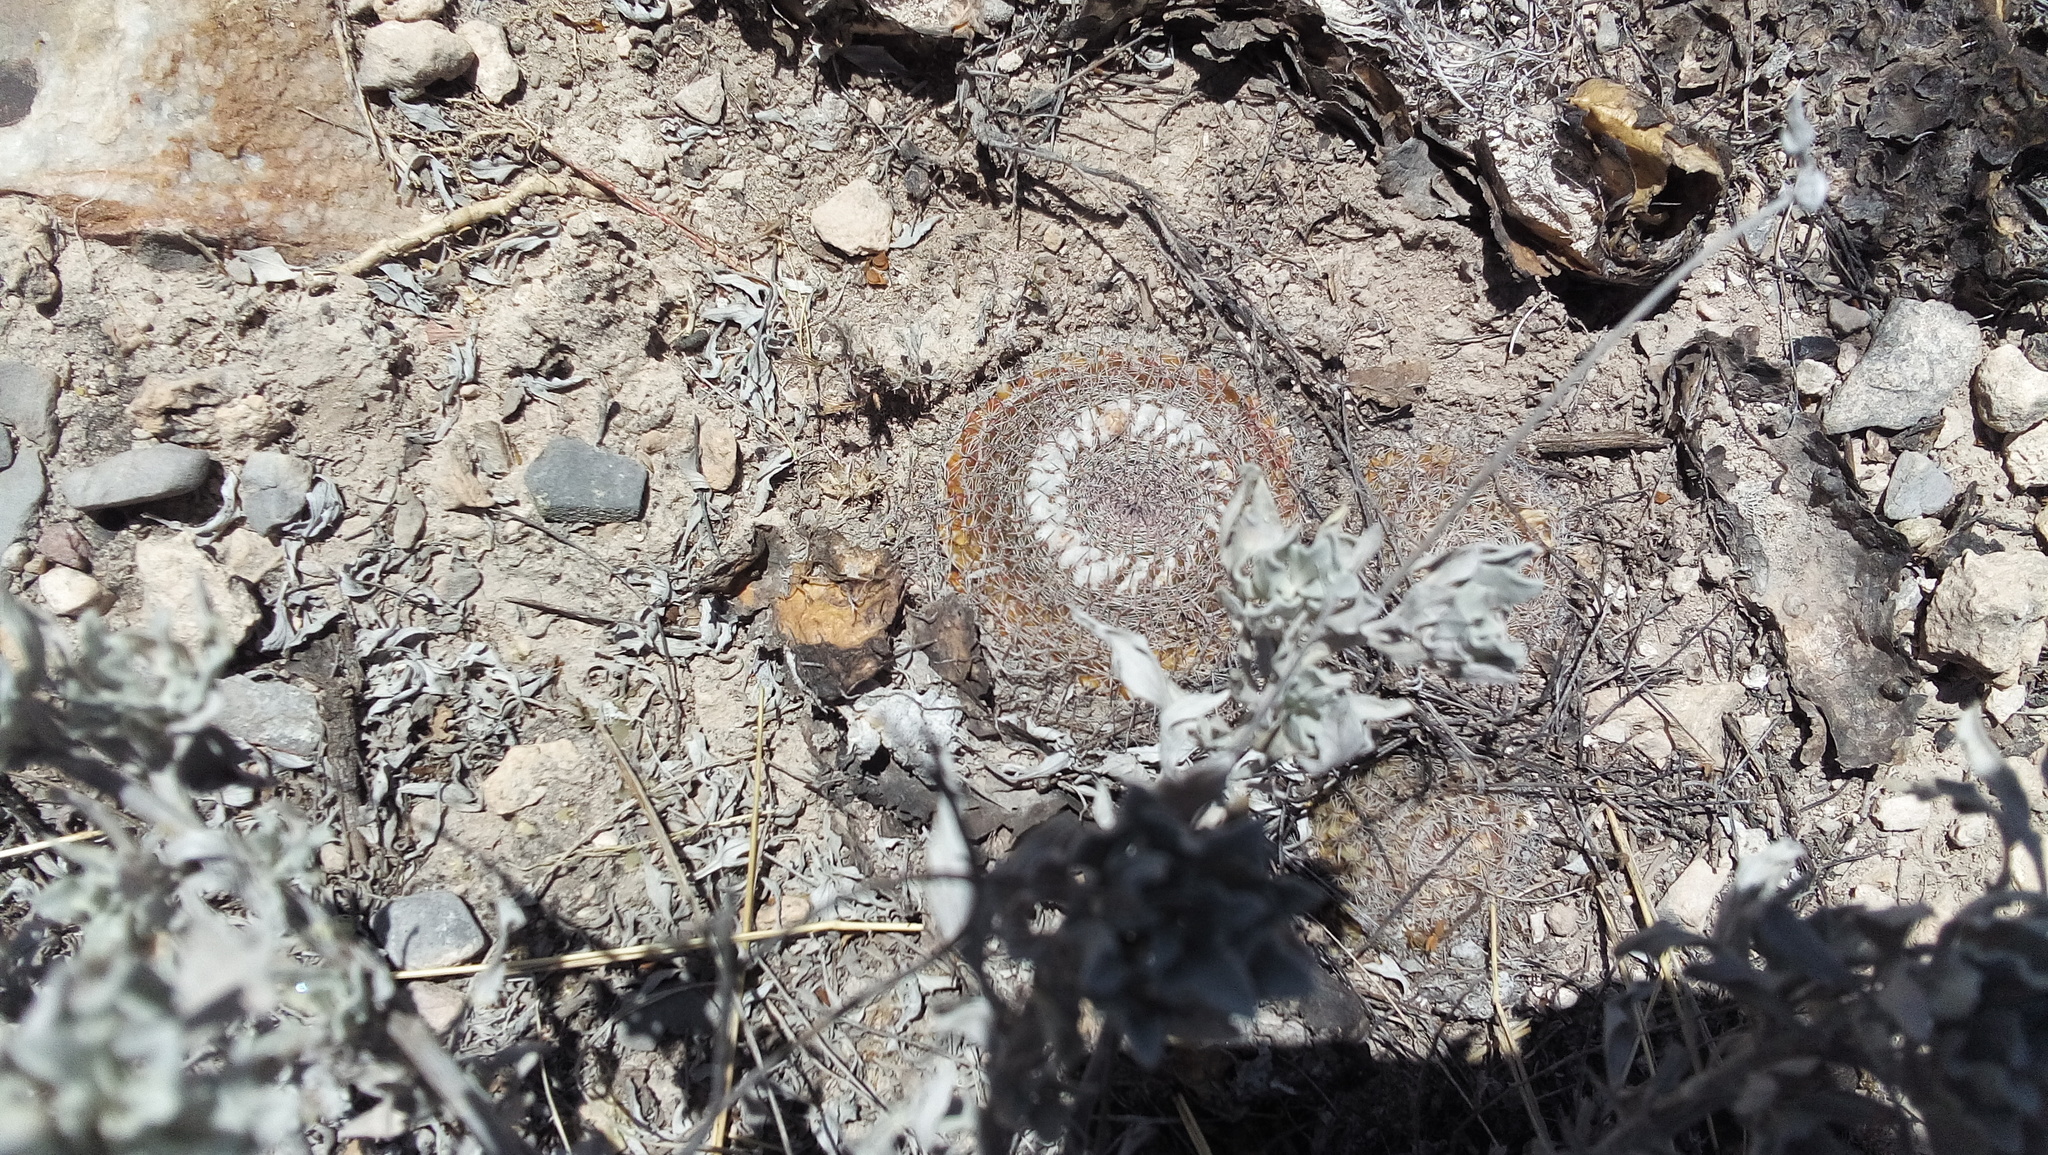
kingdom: Plantae
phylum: Tracheophyta
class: Magnoliopsida
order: Caryophyllales
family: Cactaceae
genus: Mammillaria
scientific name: Mammillaria formosa
